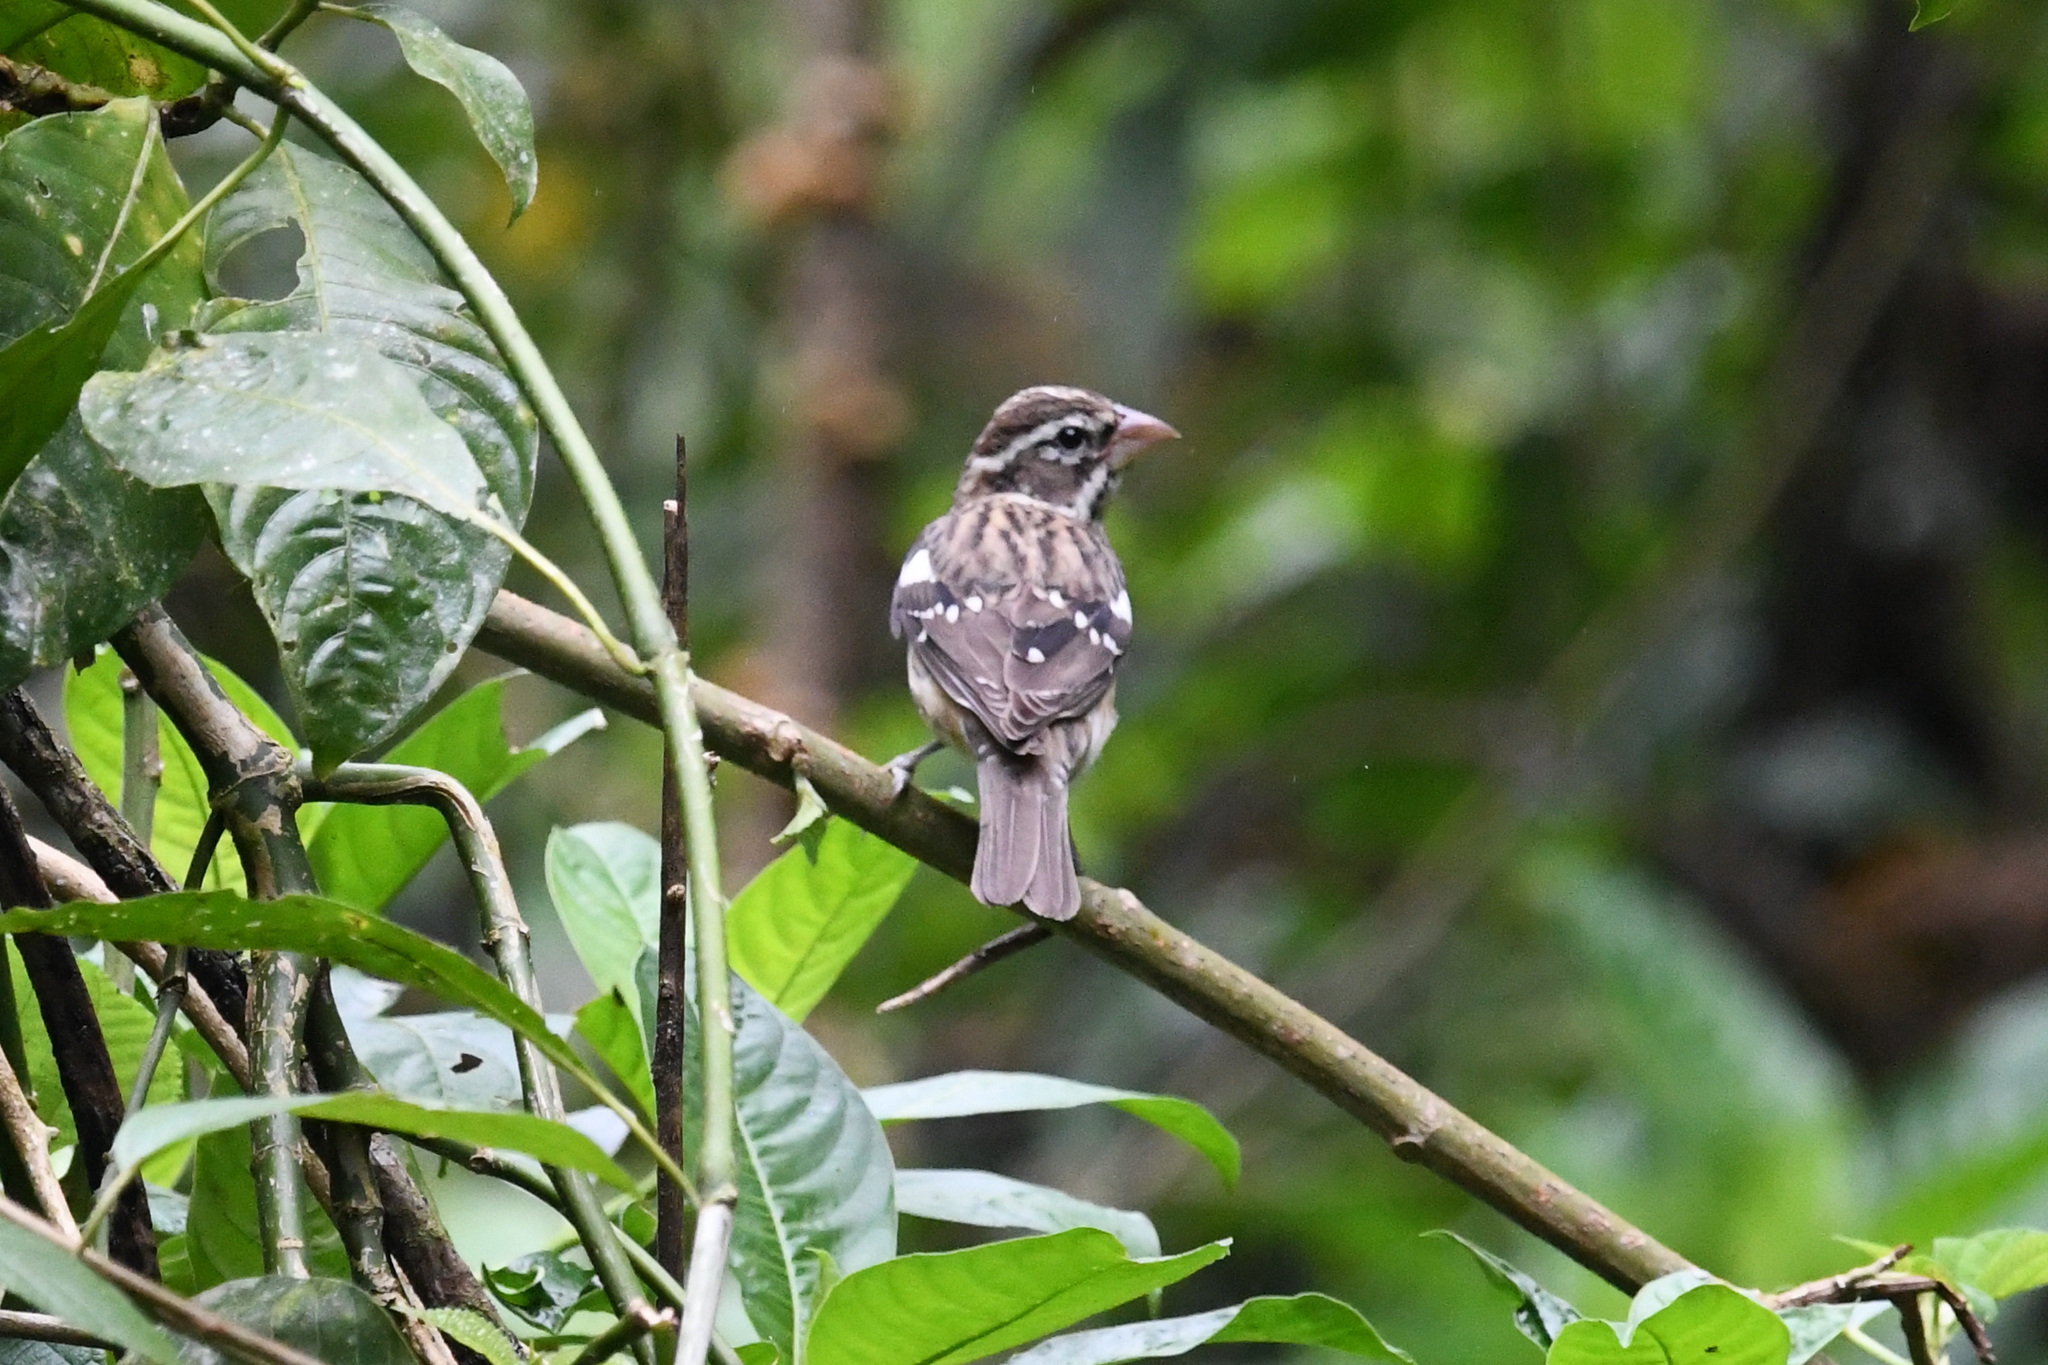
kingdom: Animalia
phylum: Chordata
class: Aves
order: Passeriformes
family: Cardinalidae
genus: Pheucticus
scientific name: Pheucticus ludovicianus
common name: Rose-breasted grosbeak
